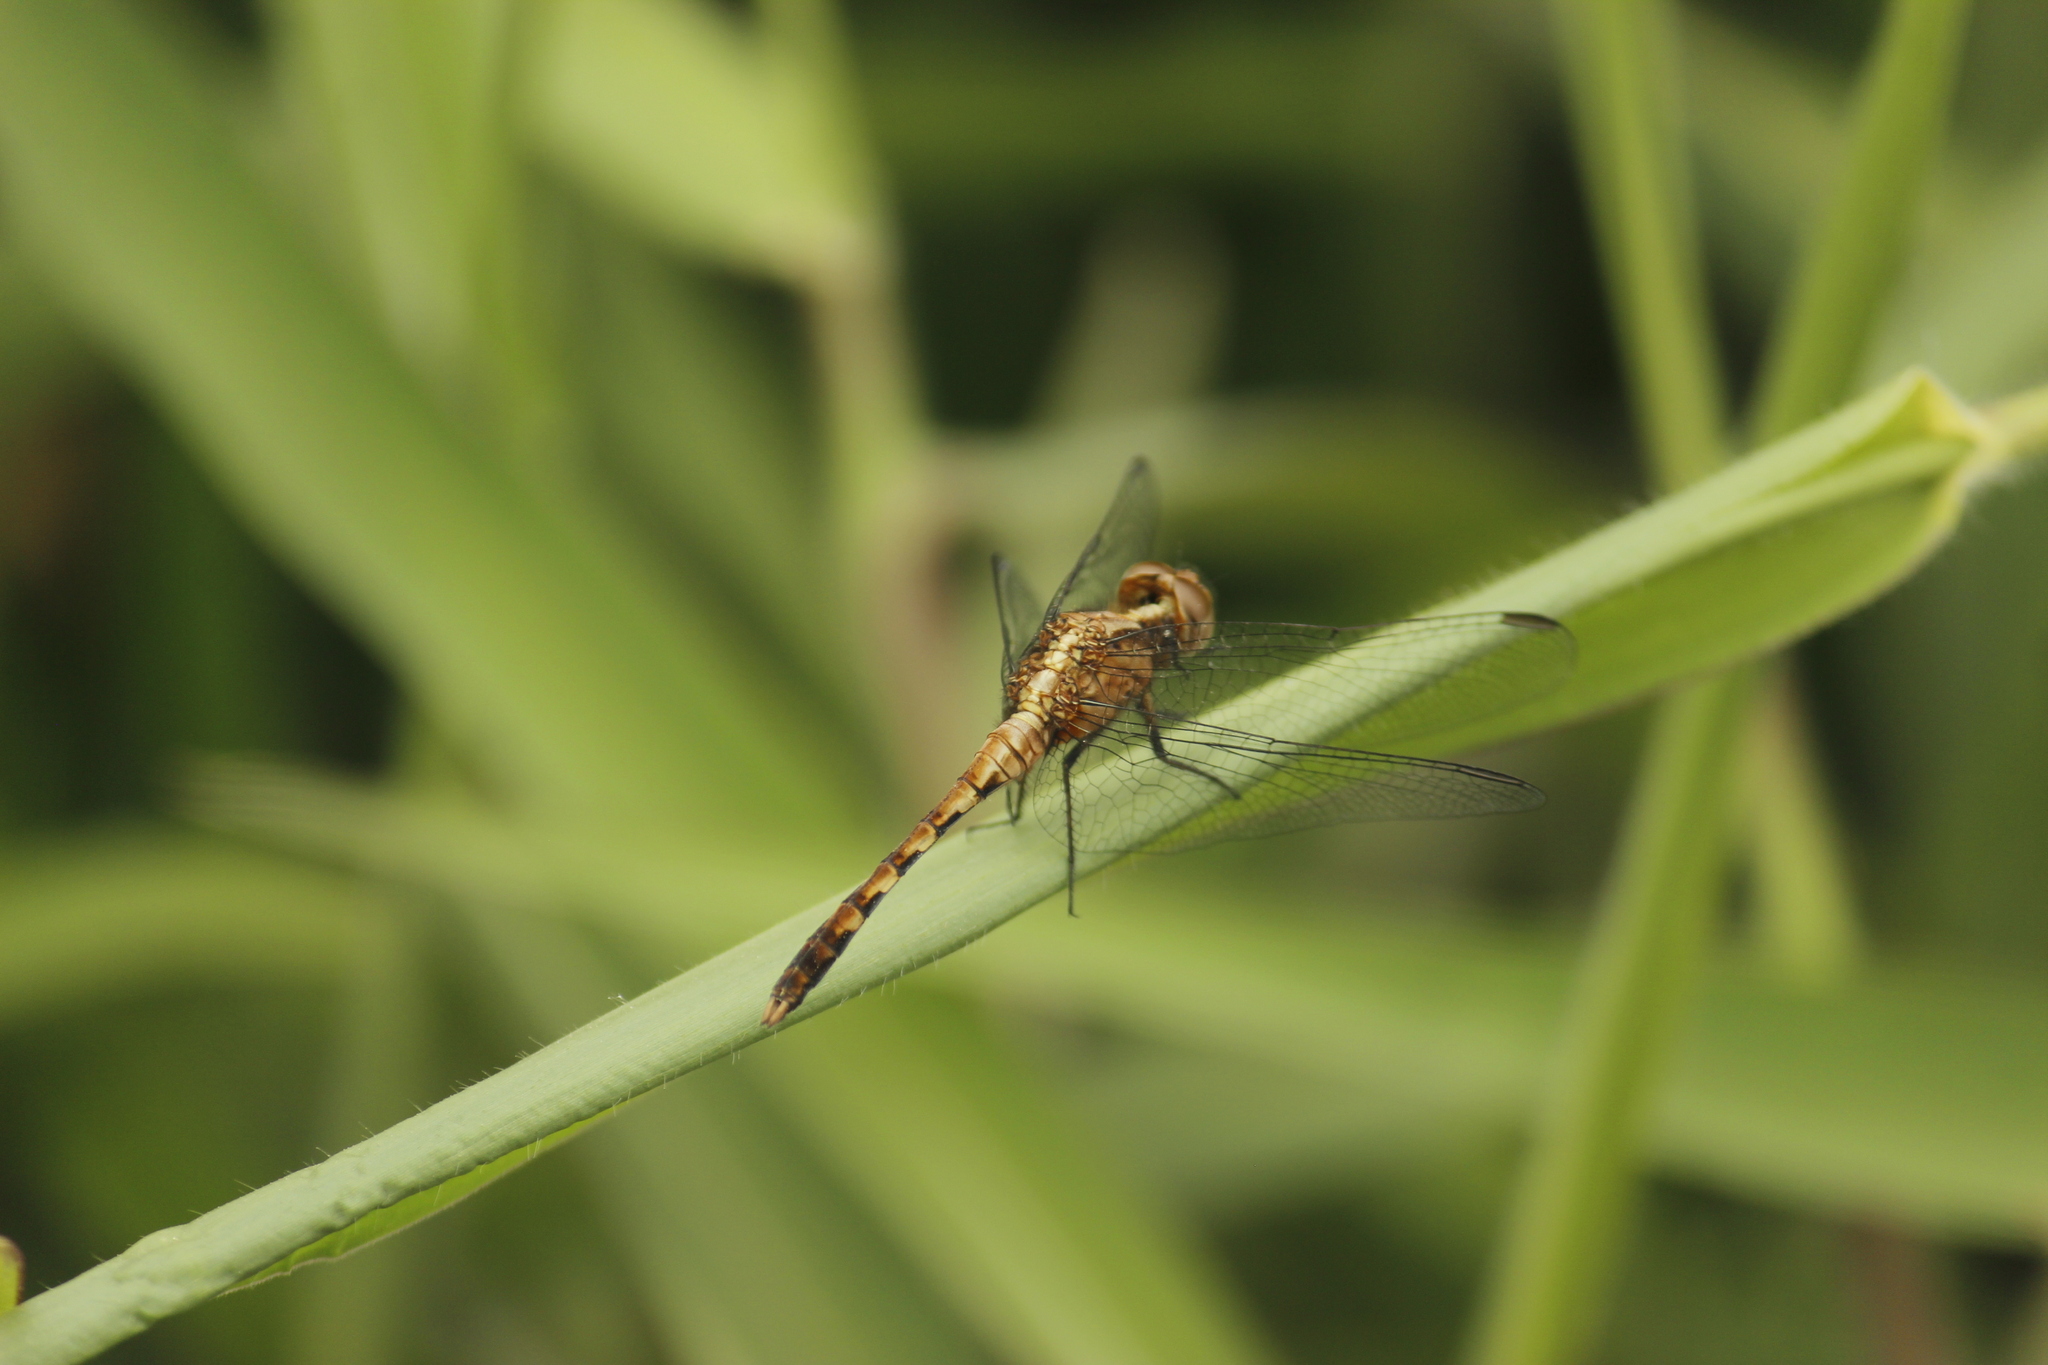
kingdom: Animalia
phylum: Arthropoda
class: Insecta
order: Odonata
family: Libellulidae
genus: Erythrodiplax
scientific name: Erythrodiplax cleopatra
